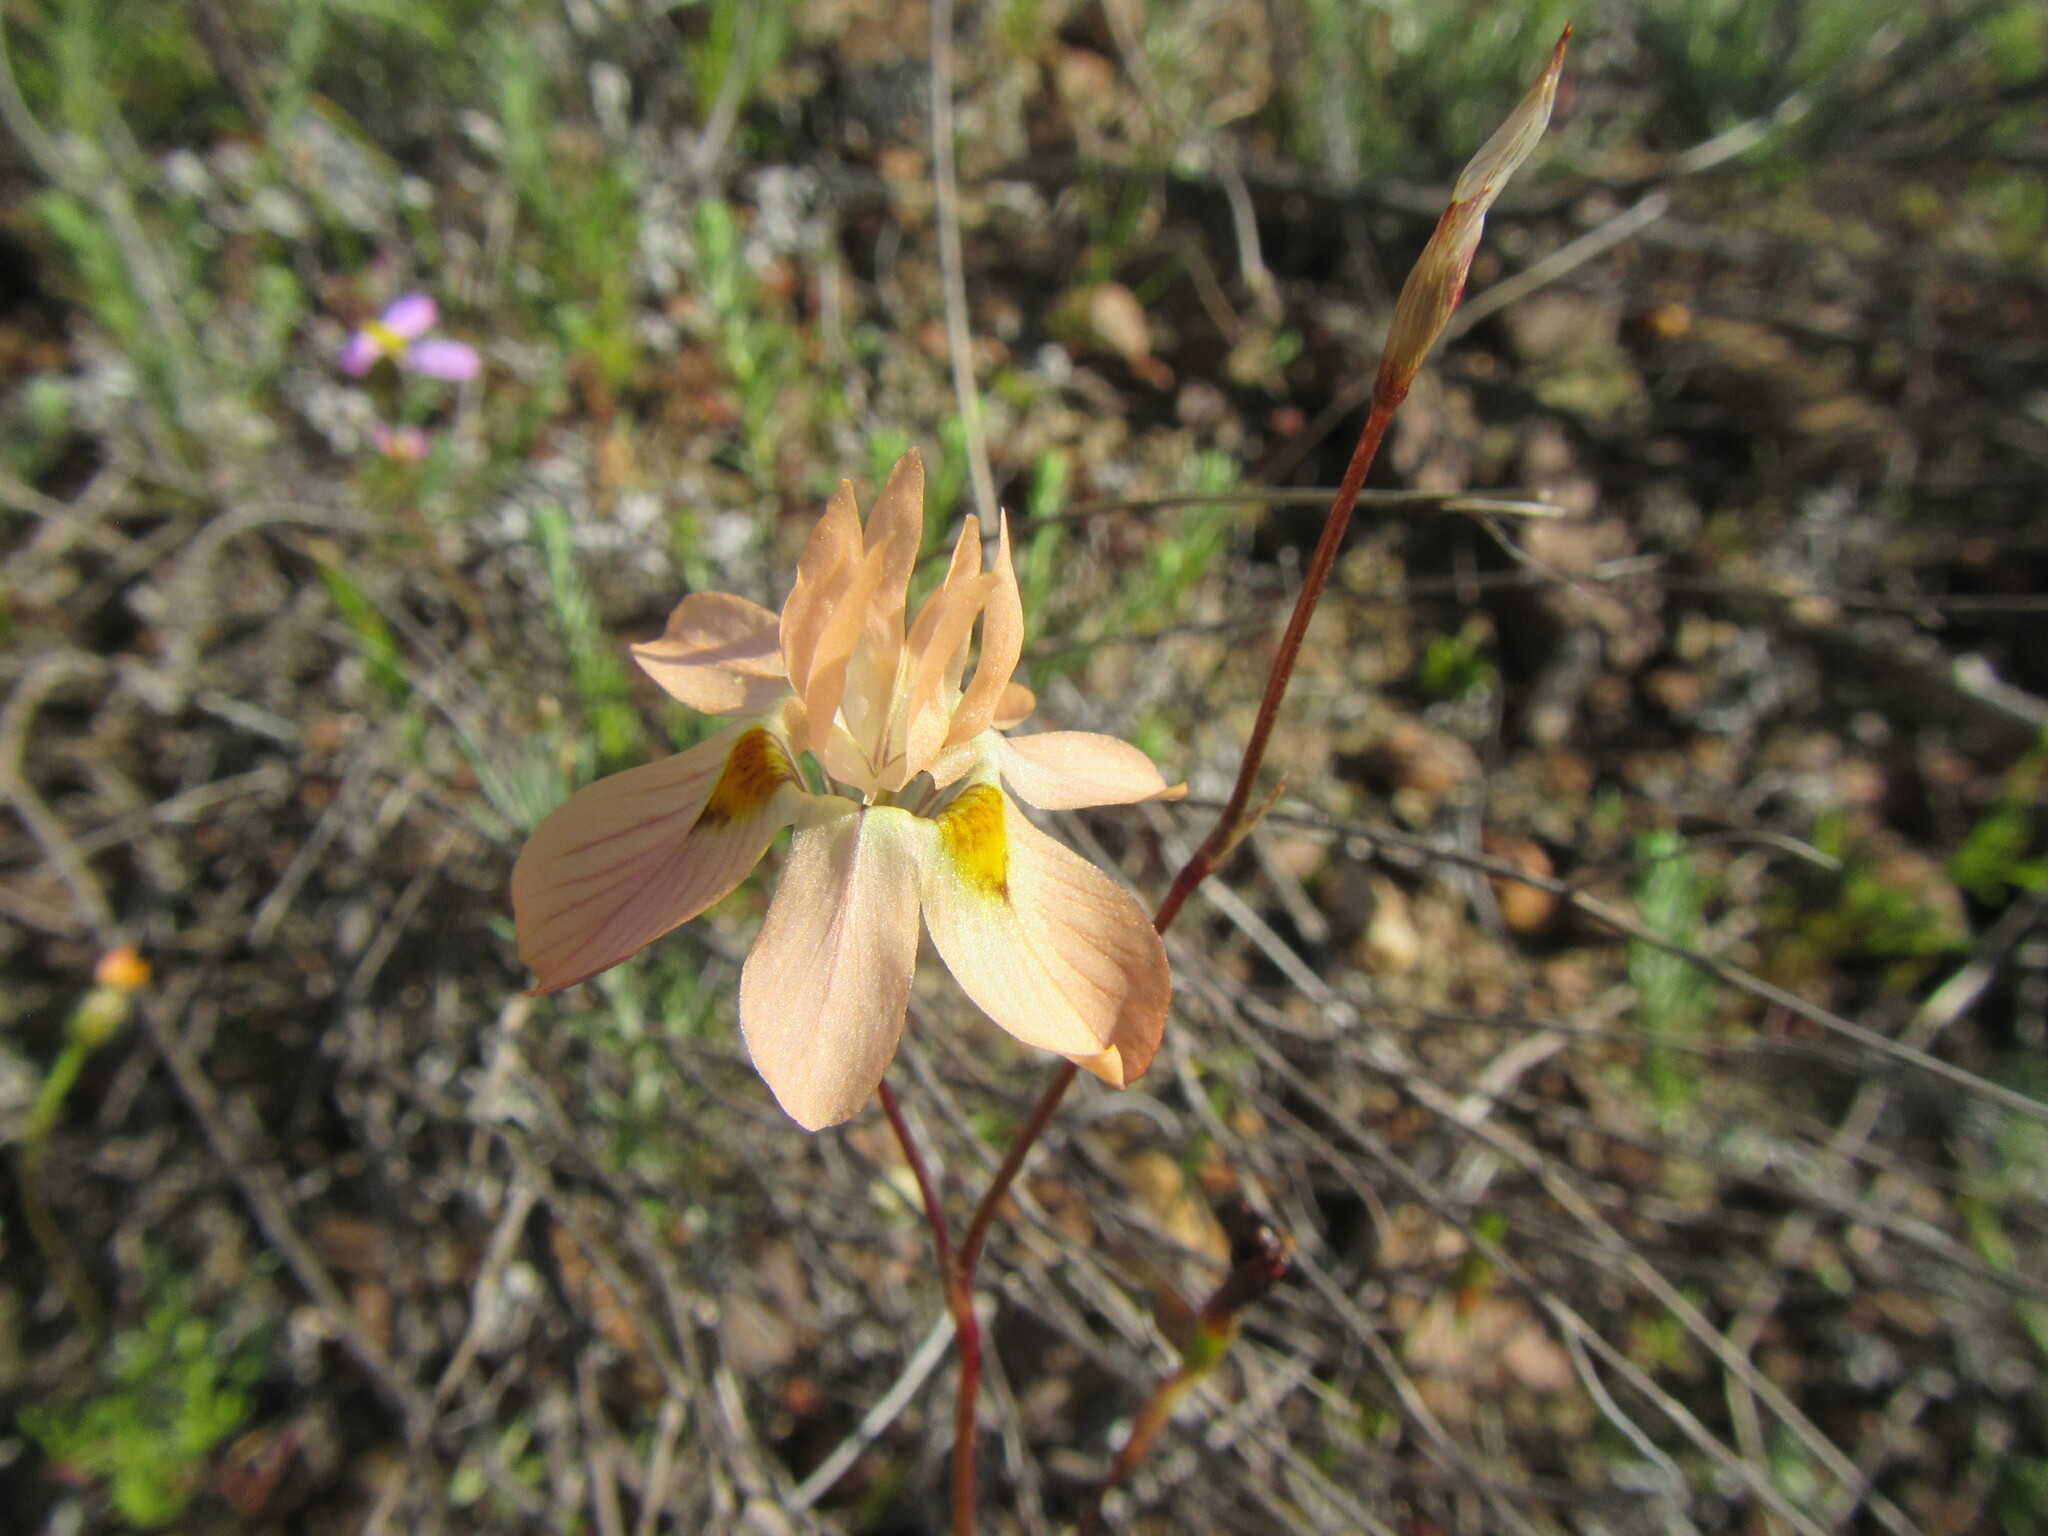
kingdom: Plantae
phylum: Tracheophyta
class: Liliopsida
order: Asparagales
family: Iridaceae
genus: Moraea
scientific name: Moraea gawleri
